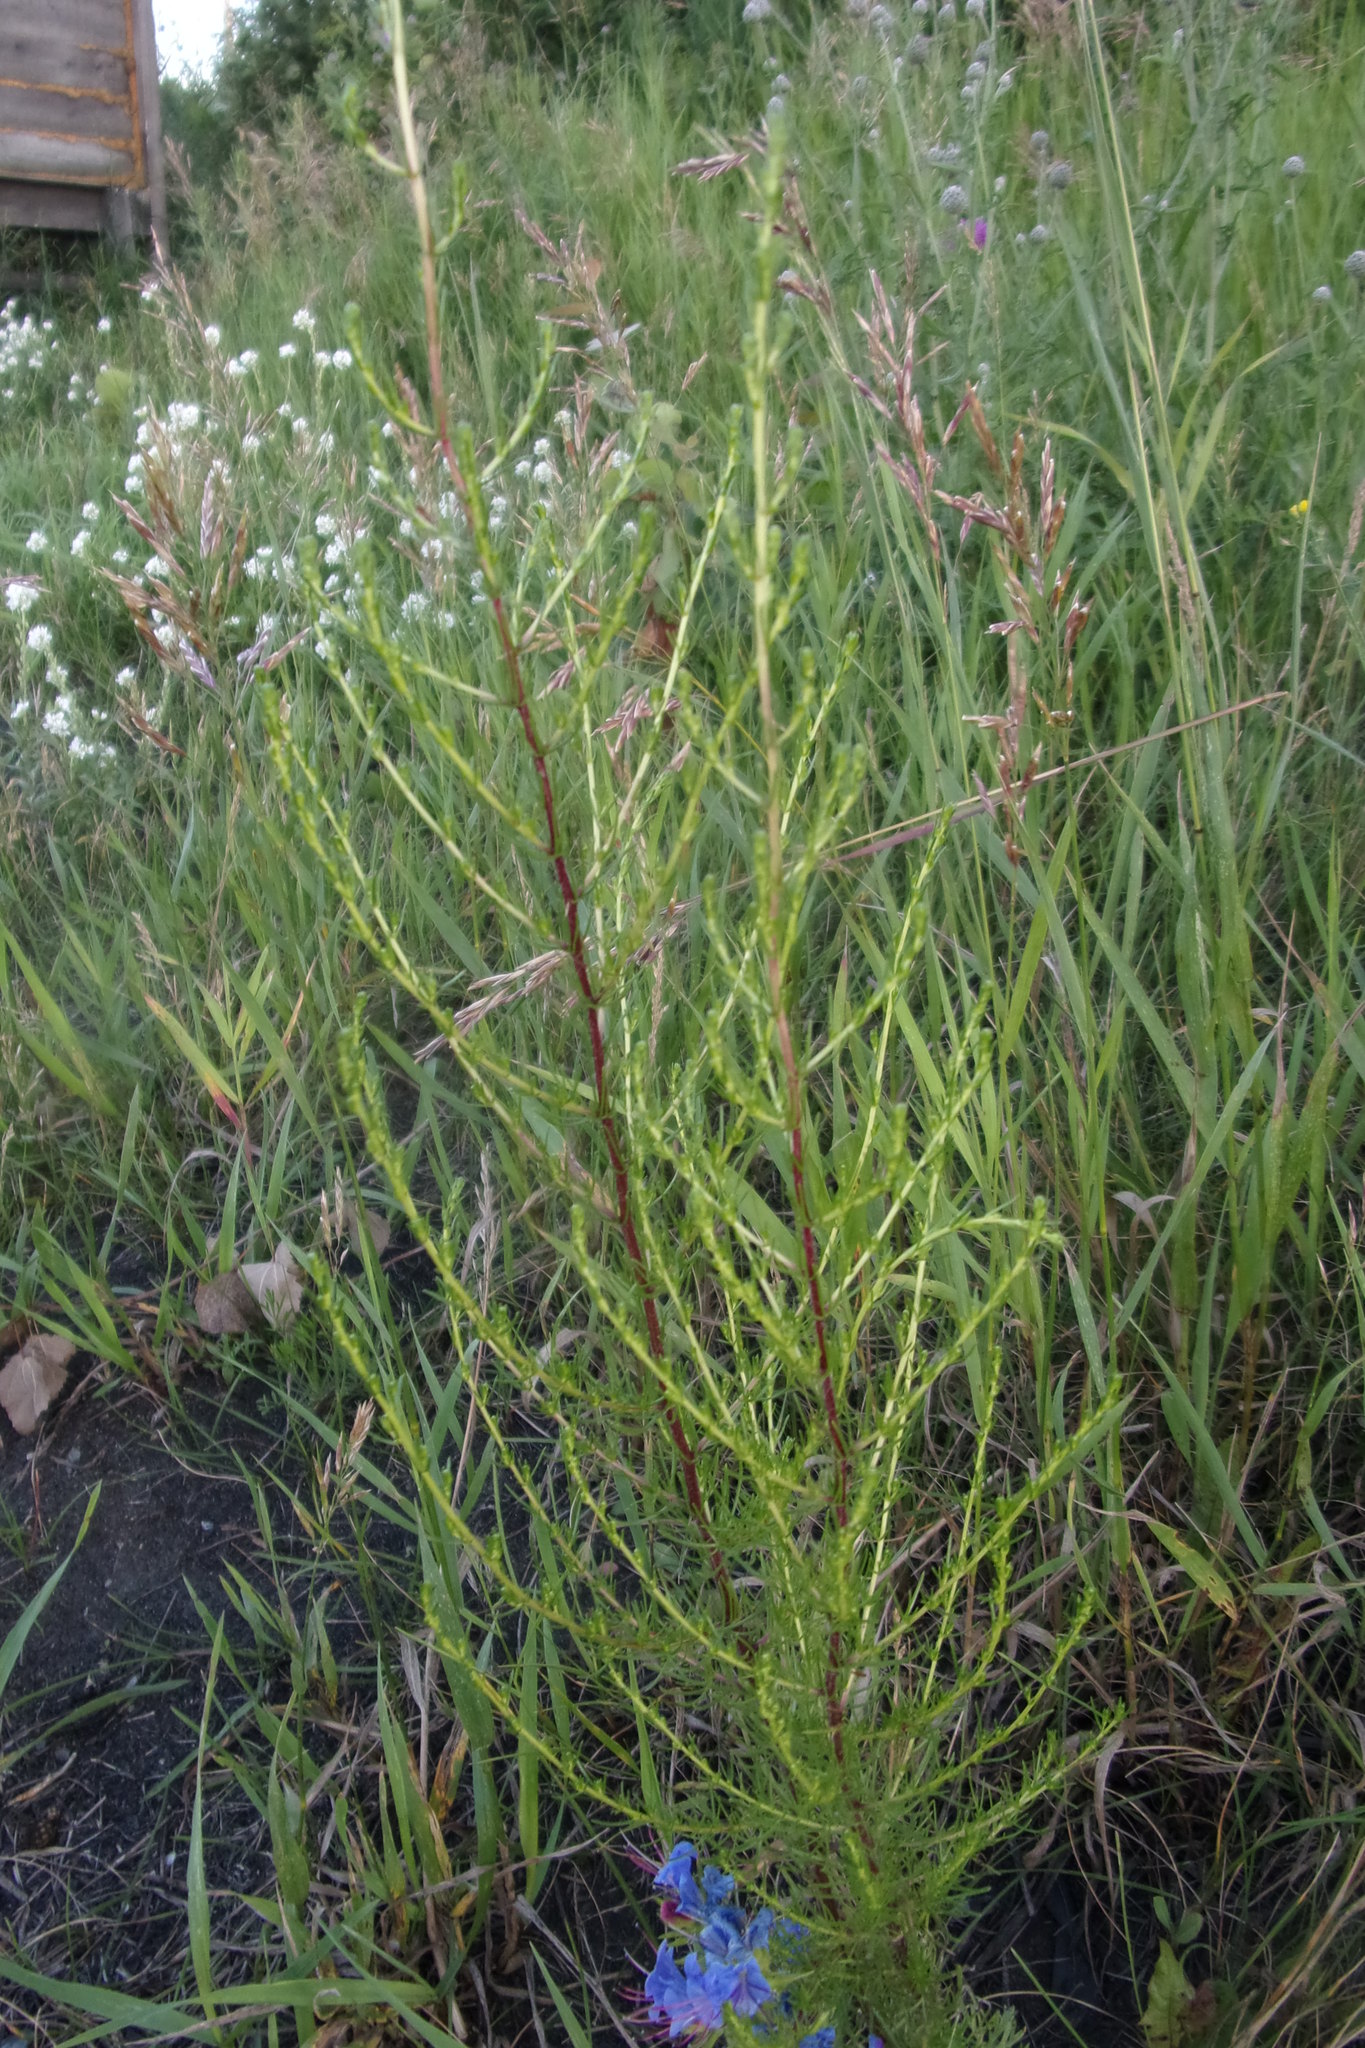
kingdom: Plantae
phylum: Tracheophyta
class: Magnoliopsida
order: Asterales
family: Asteraceae
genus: Artemisia
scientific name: Artemisia campestris
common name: Field wormwood
